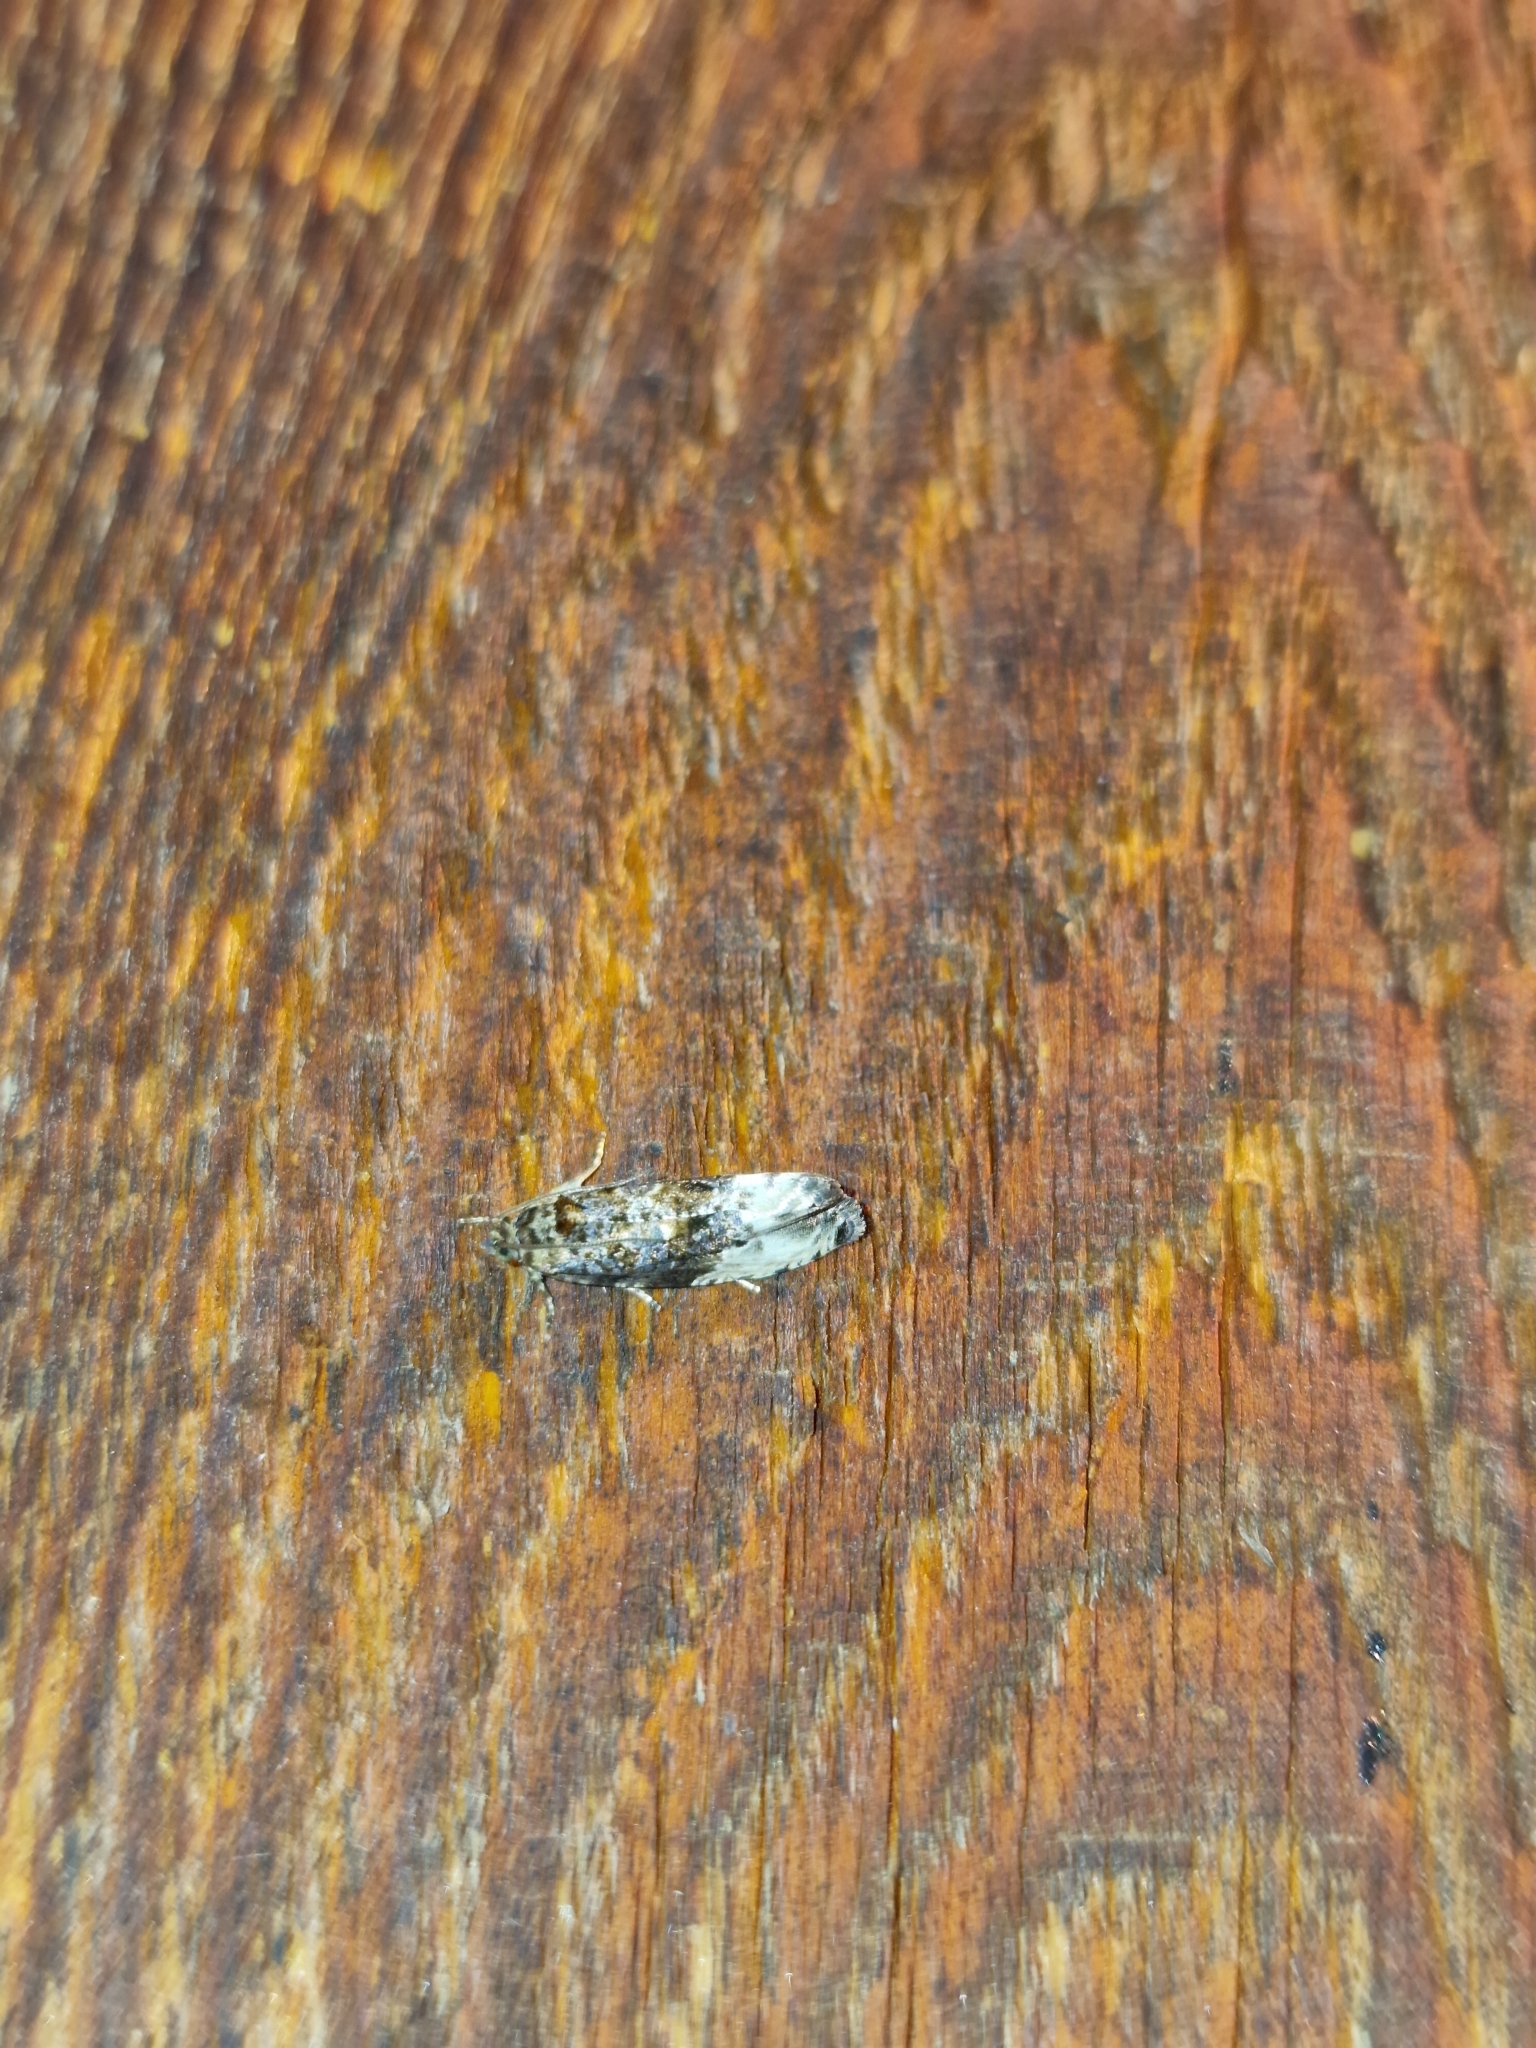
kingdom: Animalia
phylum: Arthropoda
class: Insecta
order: Lepidoptera
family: Tortricidae
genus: Hedya
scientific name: Hedya nubiferana
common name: Marbled orchard tortrix
